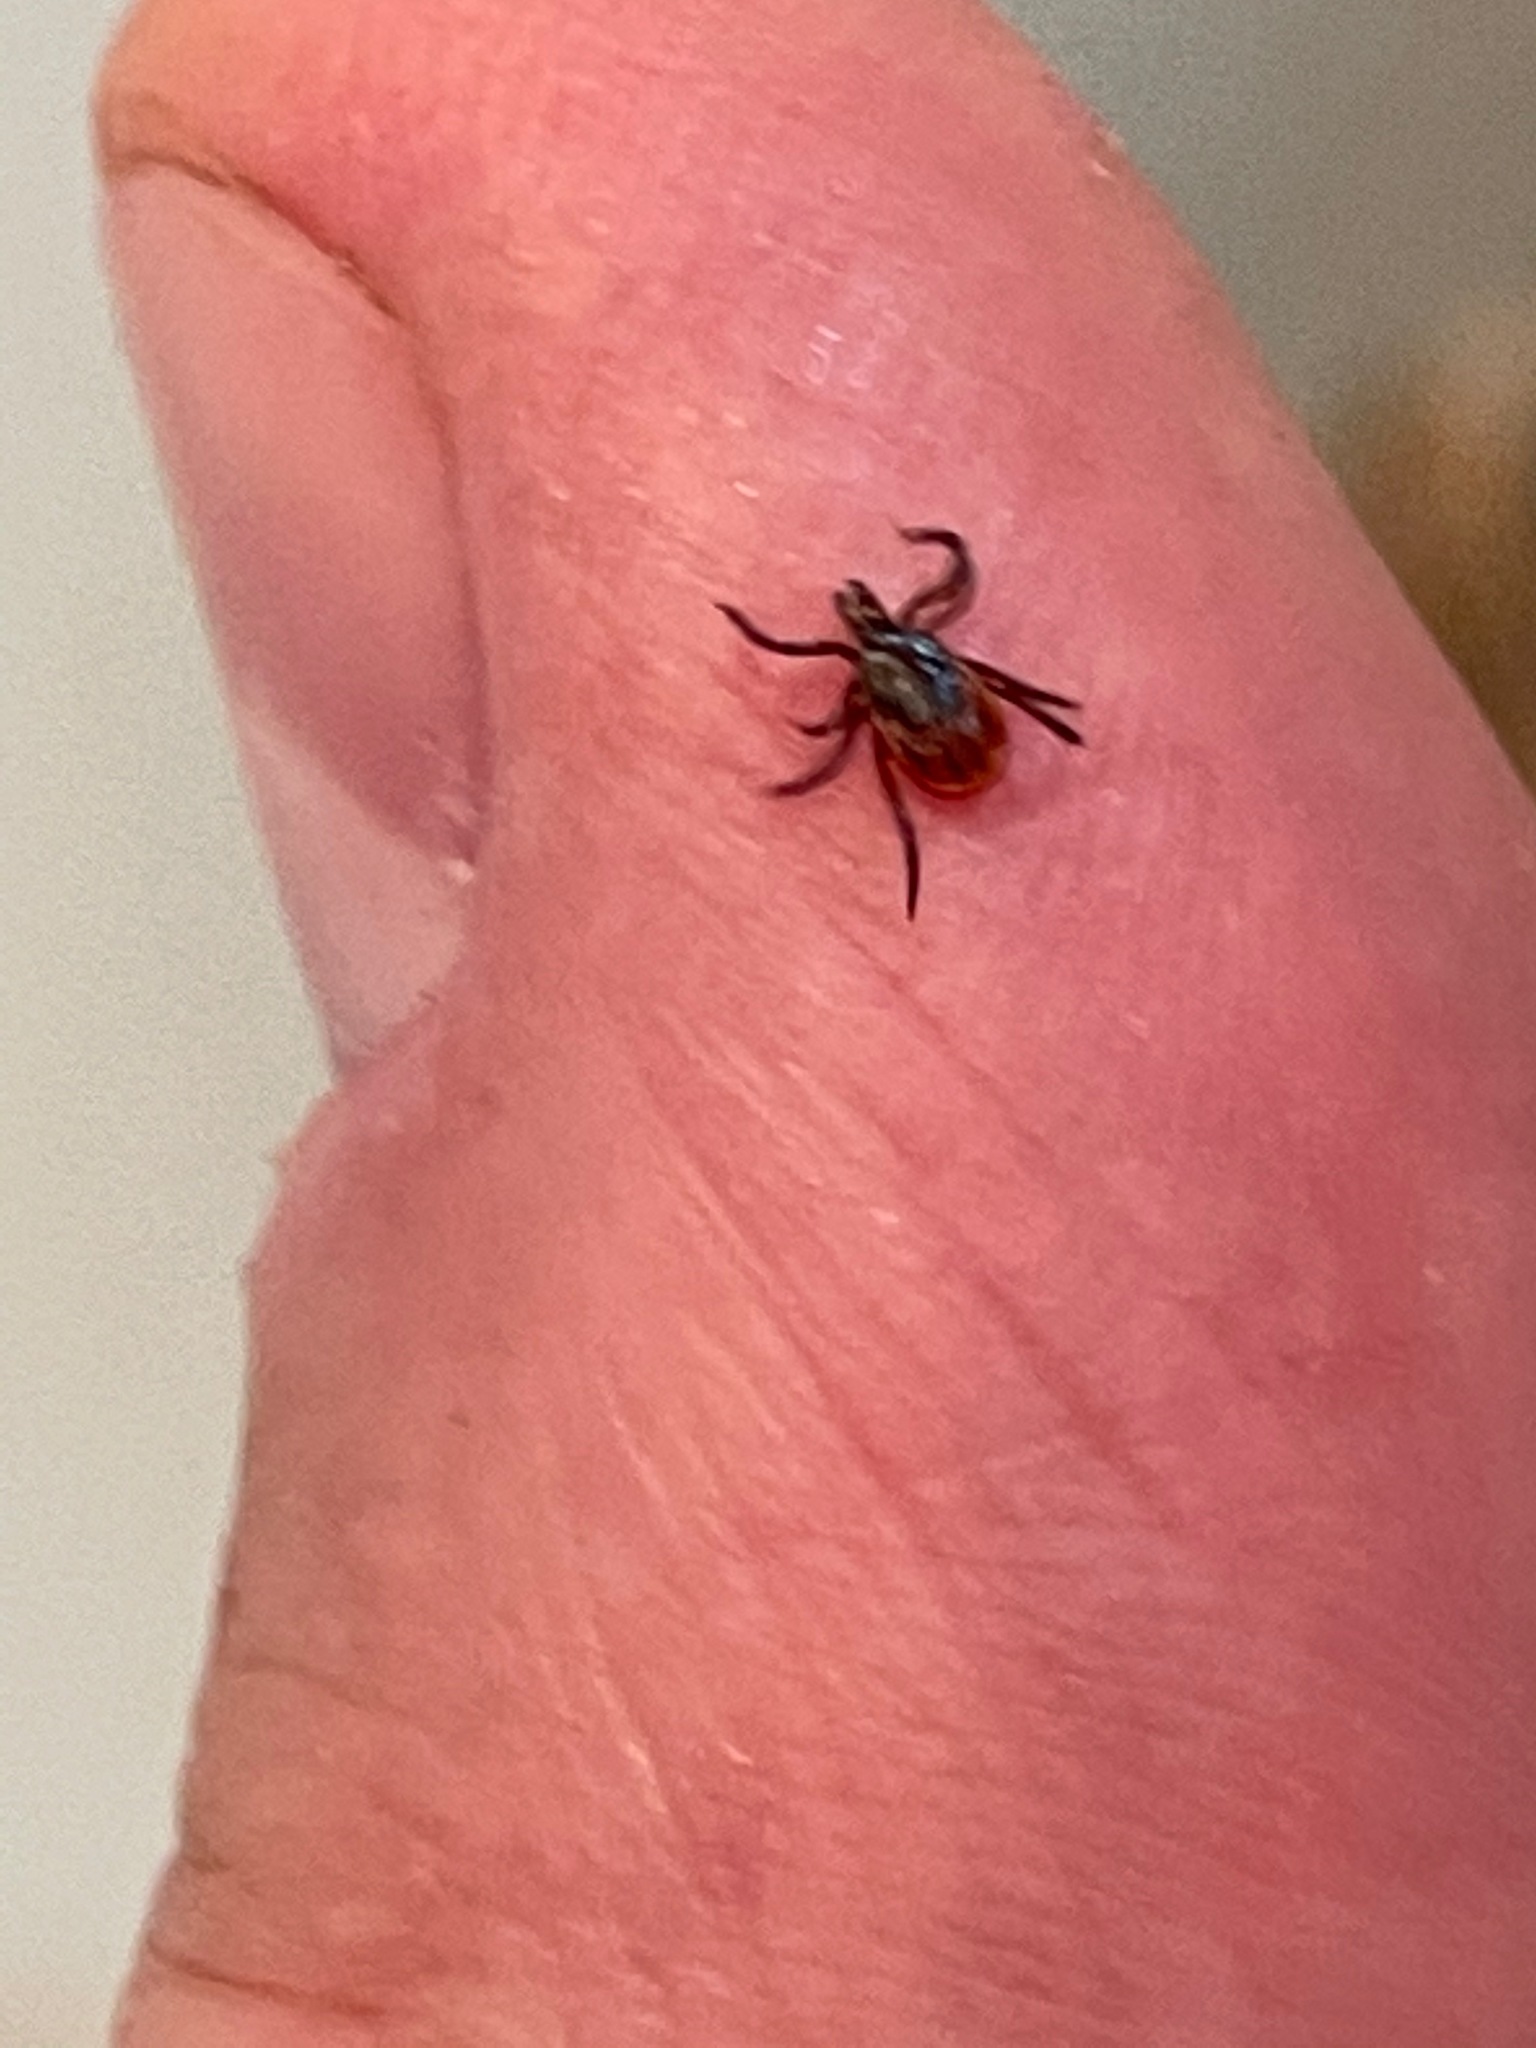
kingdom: Animalia
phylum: Arthropoda
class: Arachnida
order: Ixodida
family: Ixodidae
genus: Ixodes
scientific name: Ixodes scapularis
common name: Black legged tick
